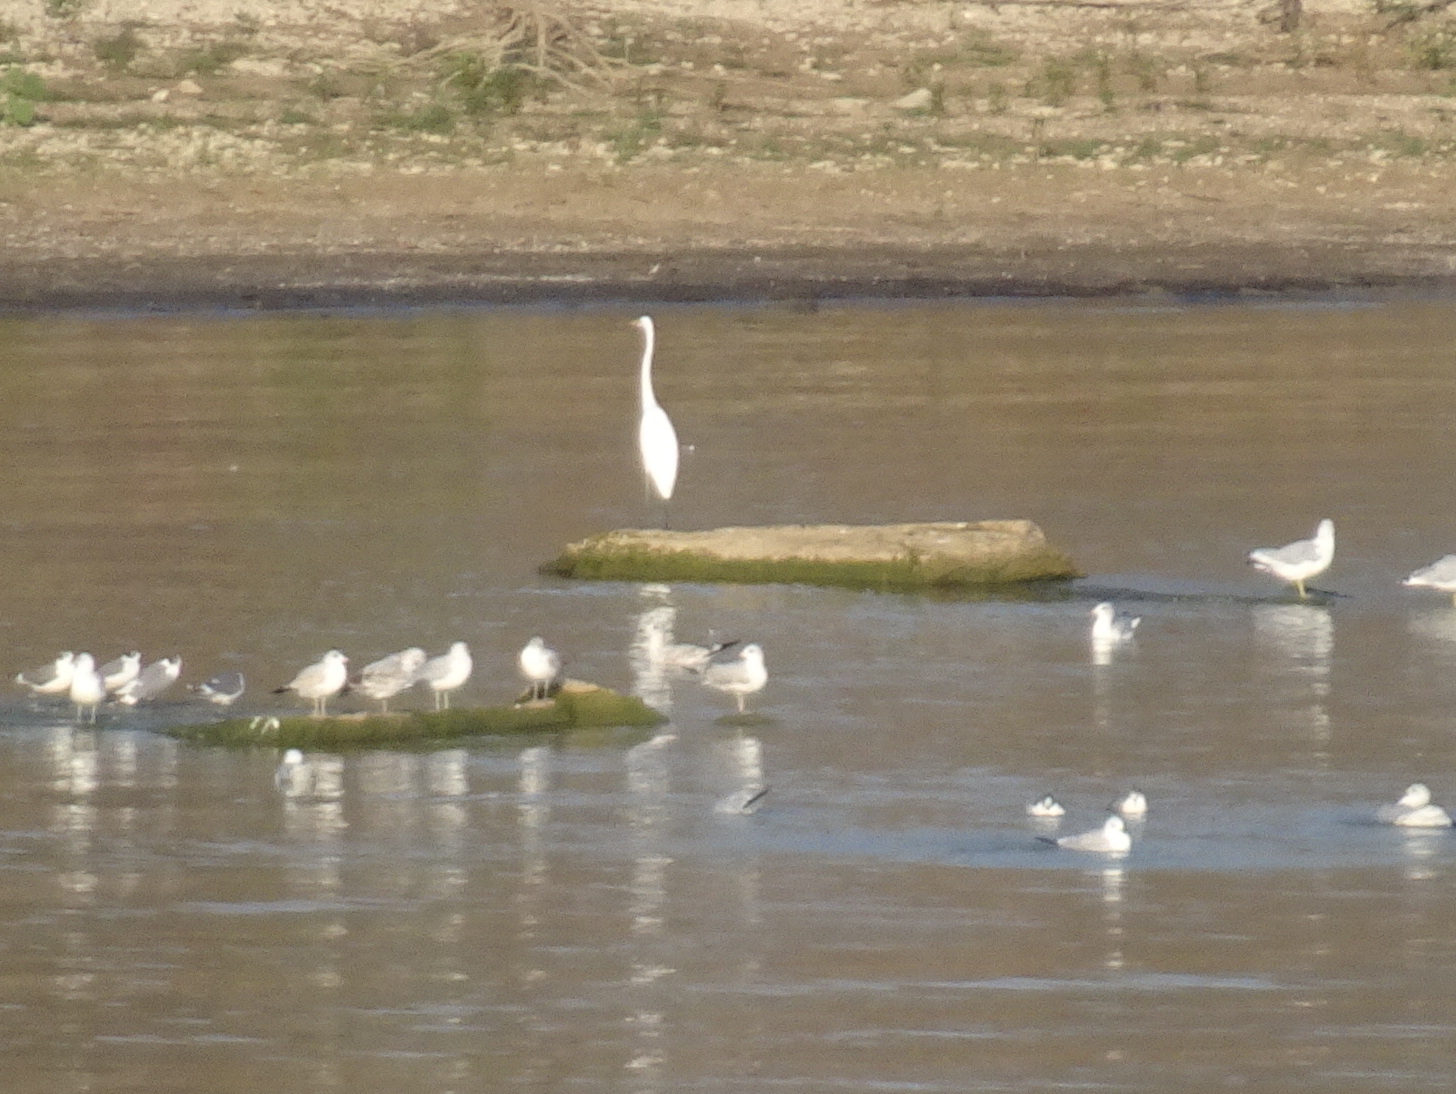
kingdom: Animalia
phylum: Chordata
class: Aves
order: Pelecaniformes
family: Ardeidae
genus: Ardea
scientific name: Ardea alba
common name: Great egret
